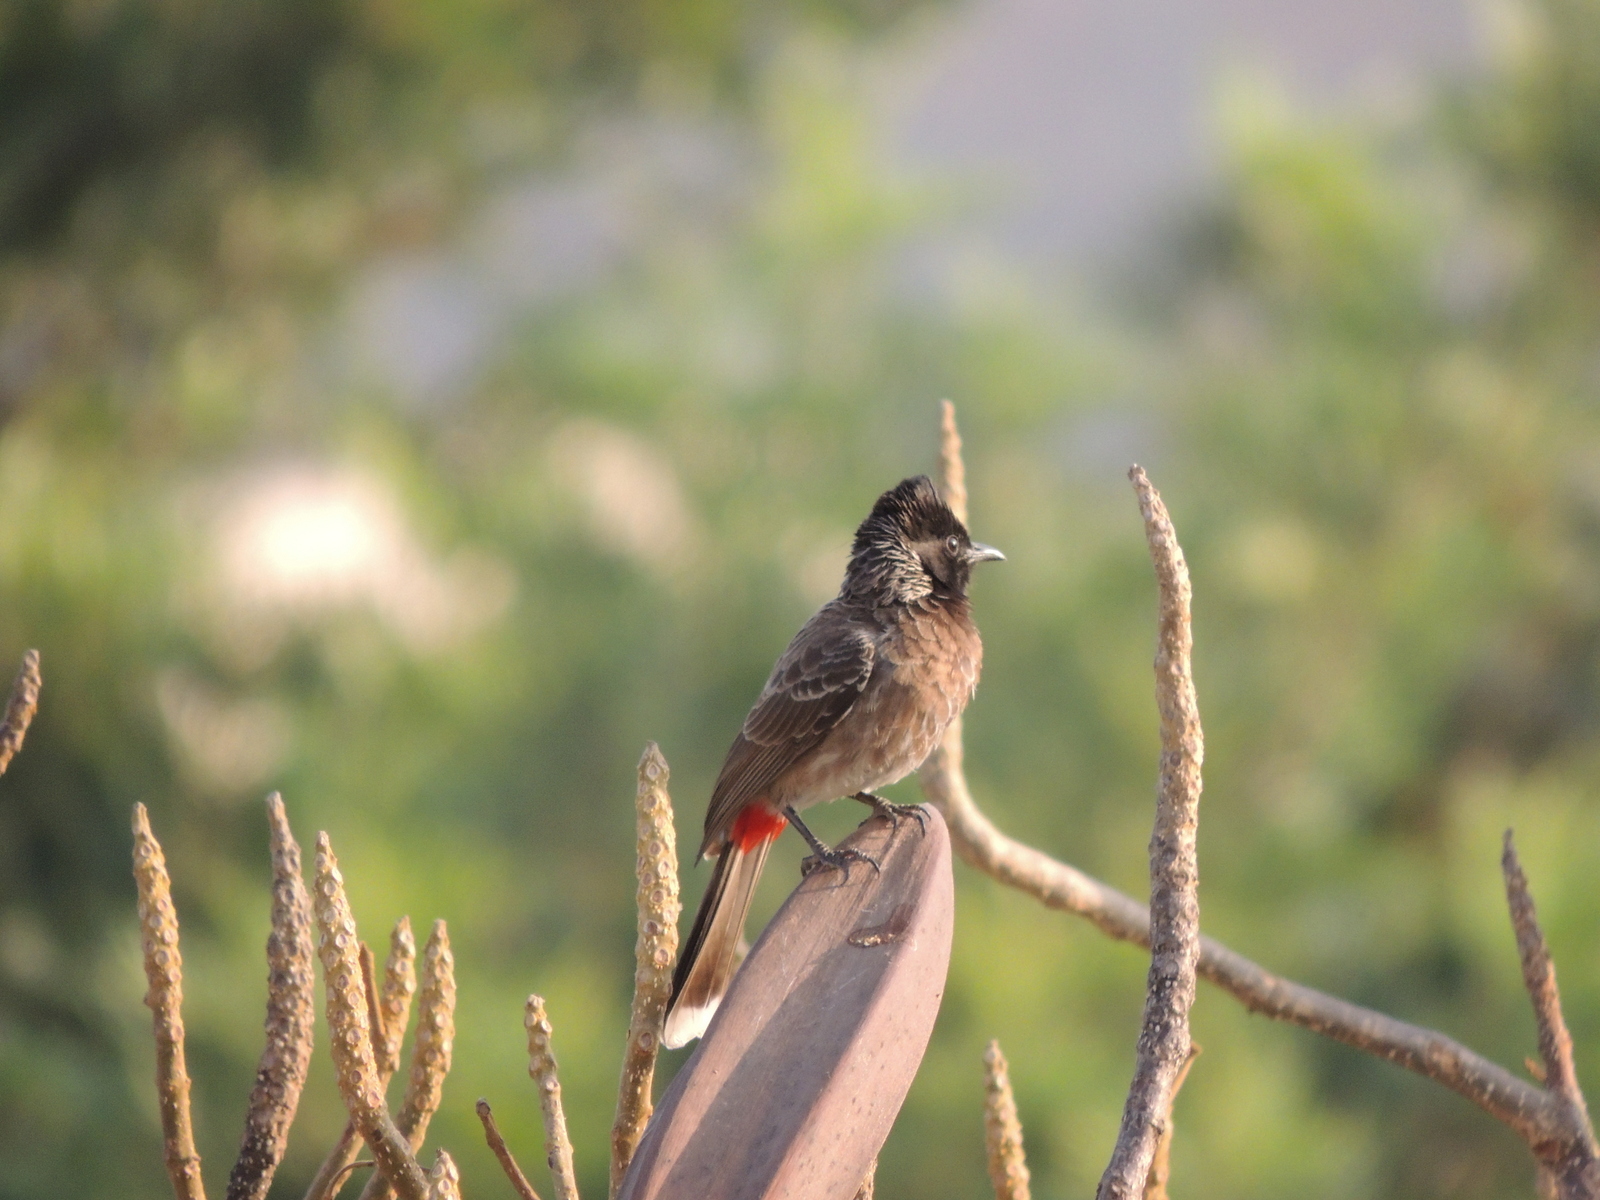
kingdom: Animalia
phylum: Chordata
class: Aves
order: Passeriformes
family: Pycnonotidae
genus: Pycnonotus
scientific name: Pycnonotus cafer
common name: Red-vented bulbul
